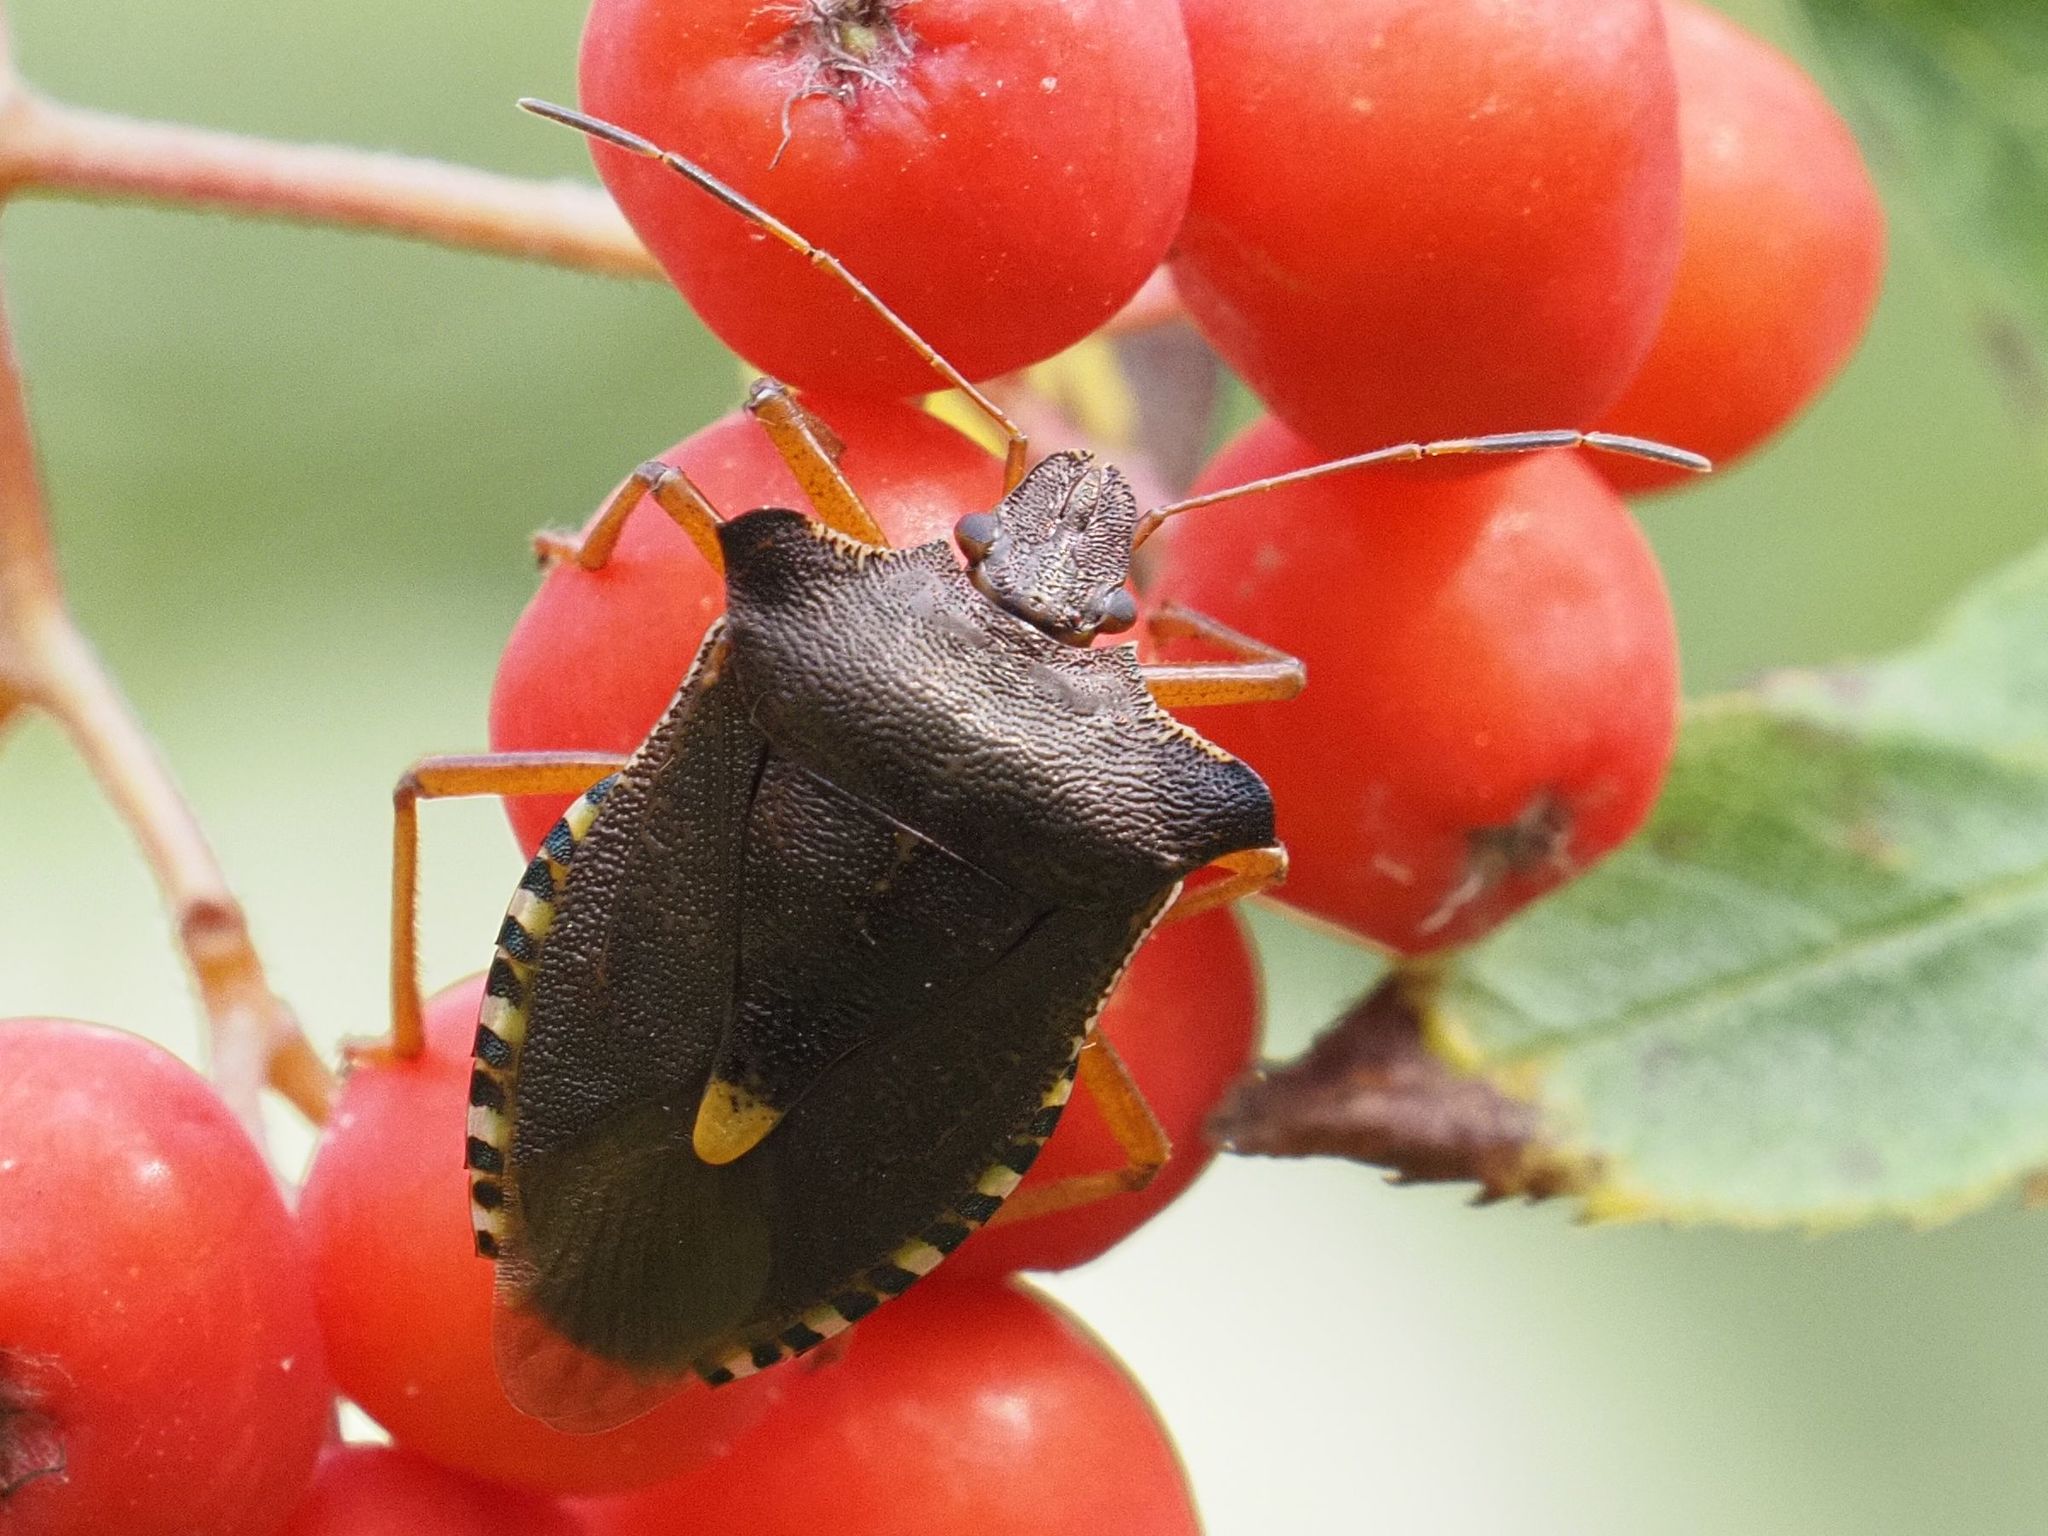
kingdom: Animalia
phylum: Arthropoda
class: Insecta
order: Hemiptera
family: Pentatomidae
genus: Pentatoma
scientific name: Pentatoma rufipes
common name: Forest bug
